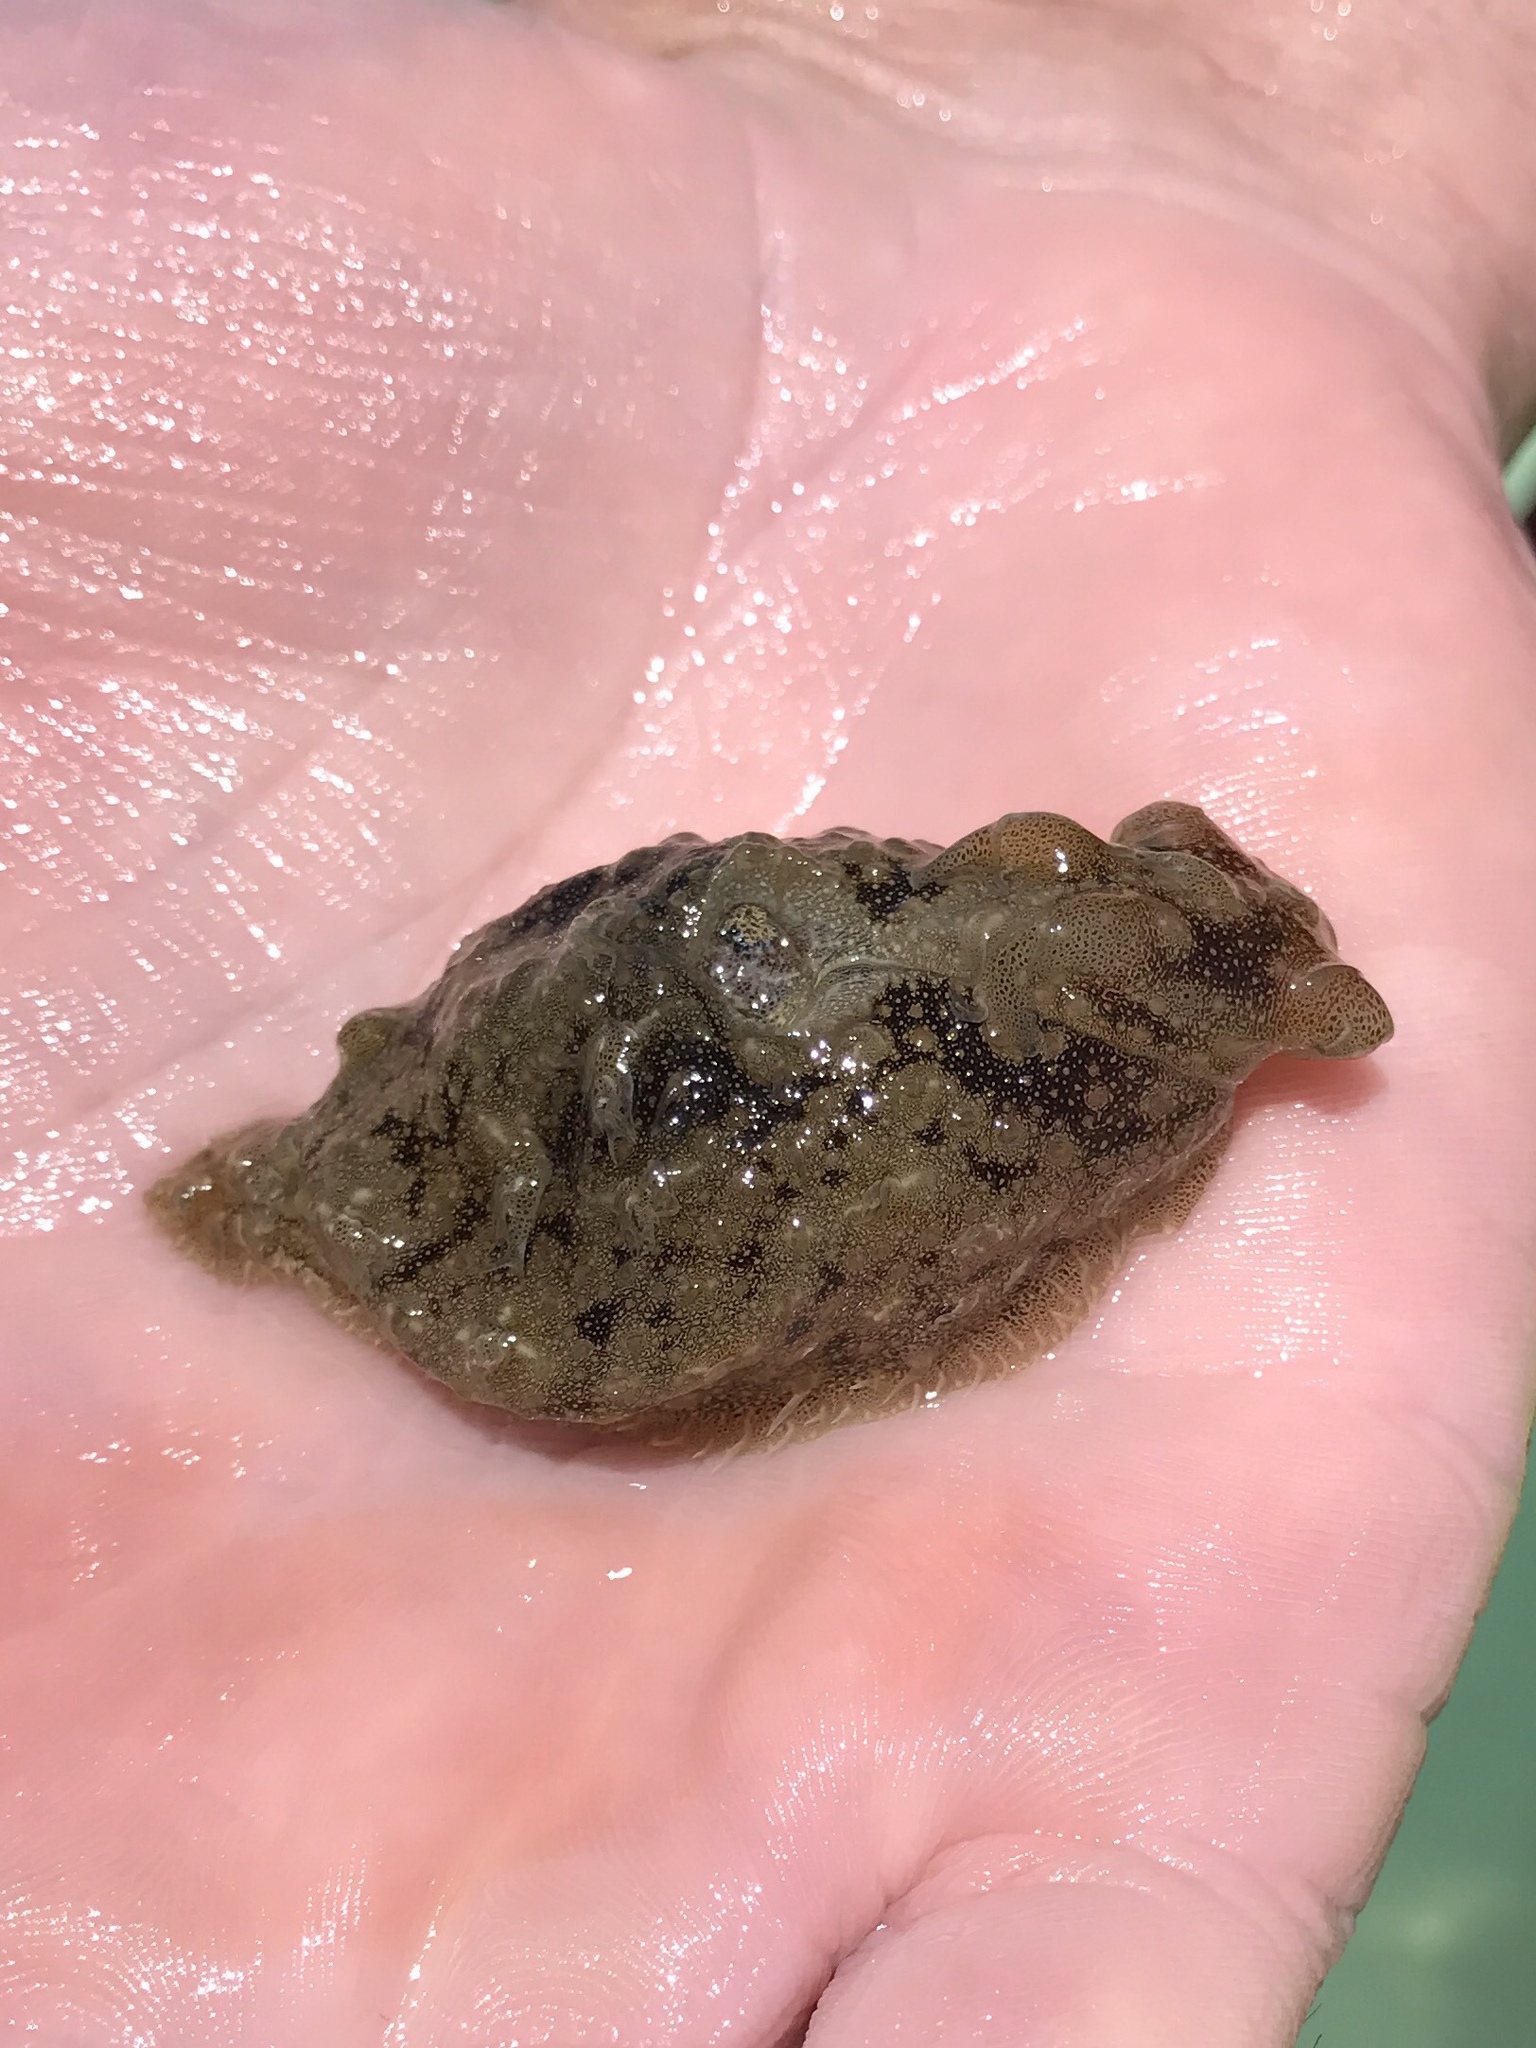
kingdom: Animalia
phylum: Mollusca
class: Gastropoda
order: Aplysiida
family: Aplysiidae
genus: Bursatella
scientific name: Bursatella leachii
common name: Shaggy sea hare
